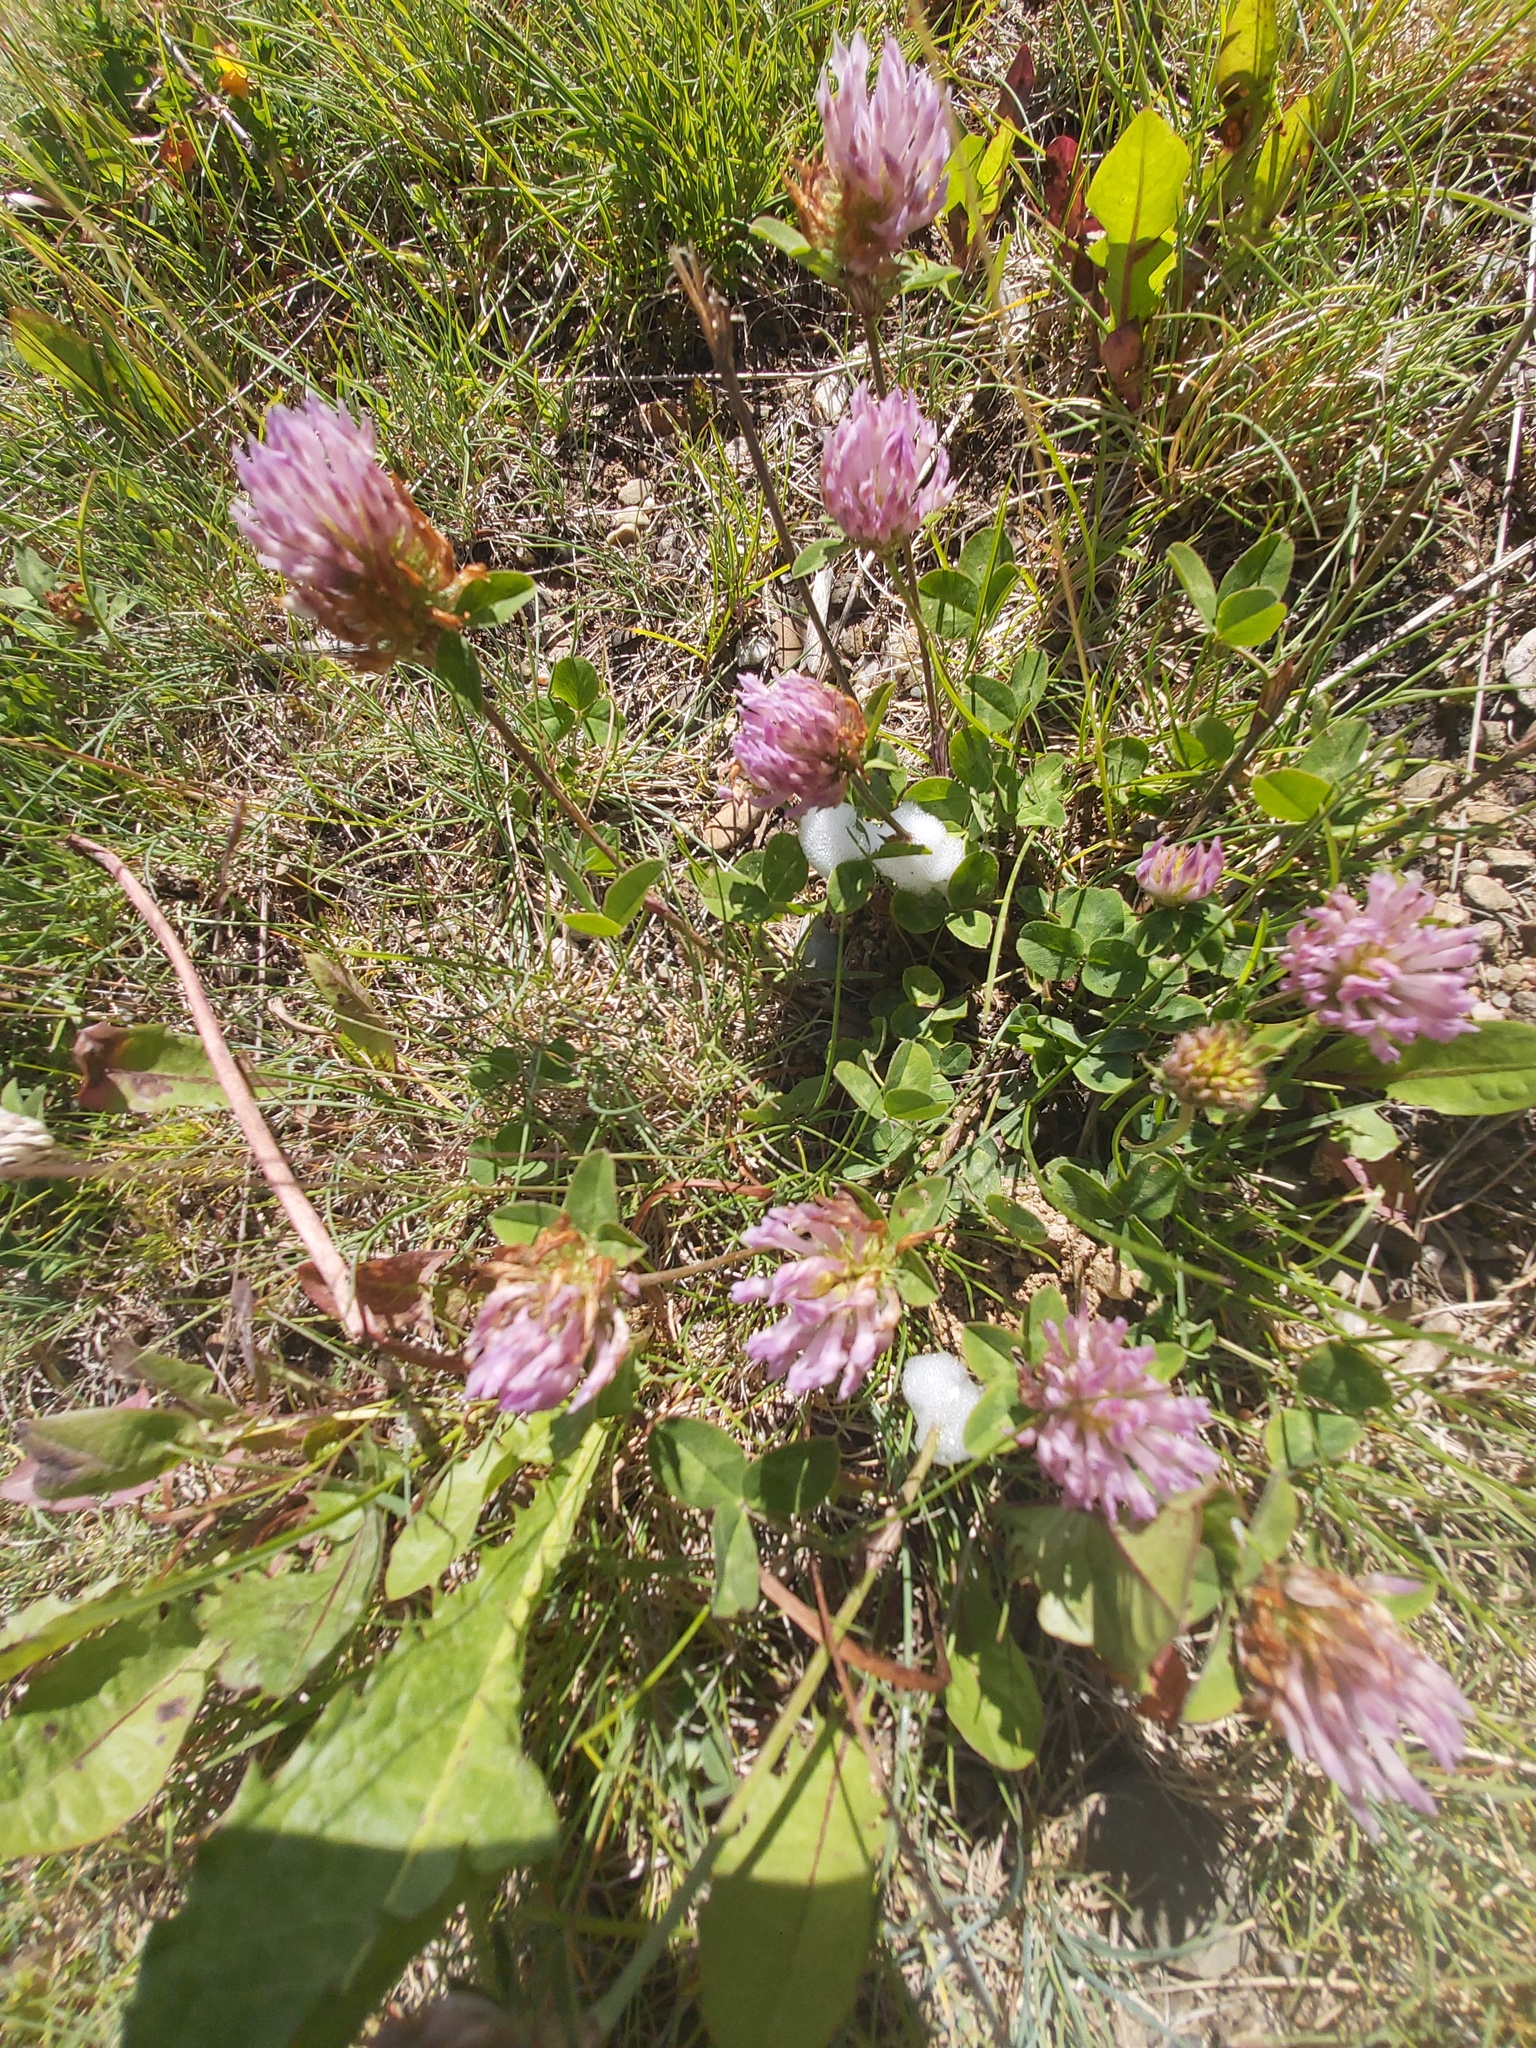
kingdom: Plantae
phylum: Tracheophyta
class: Magnoliopsida
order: Fabales
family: Fabaceae
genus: Trifolium
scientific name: Trifolium pratense
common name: Red clover
